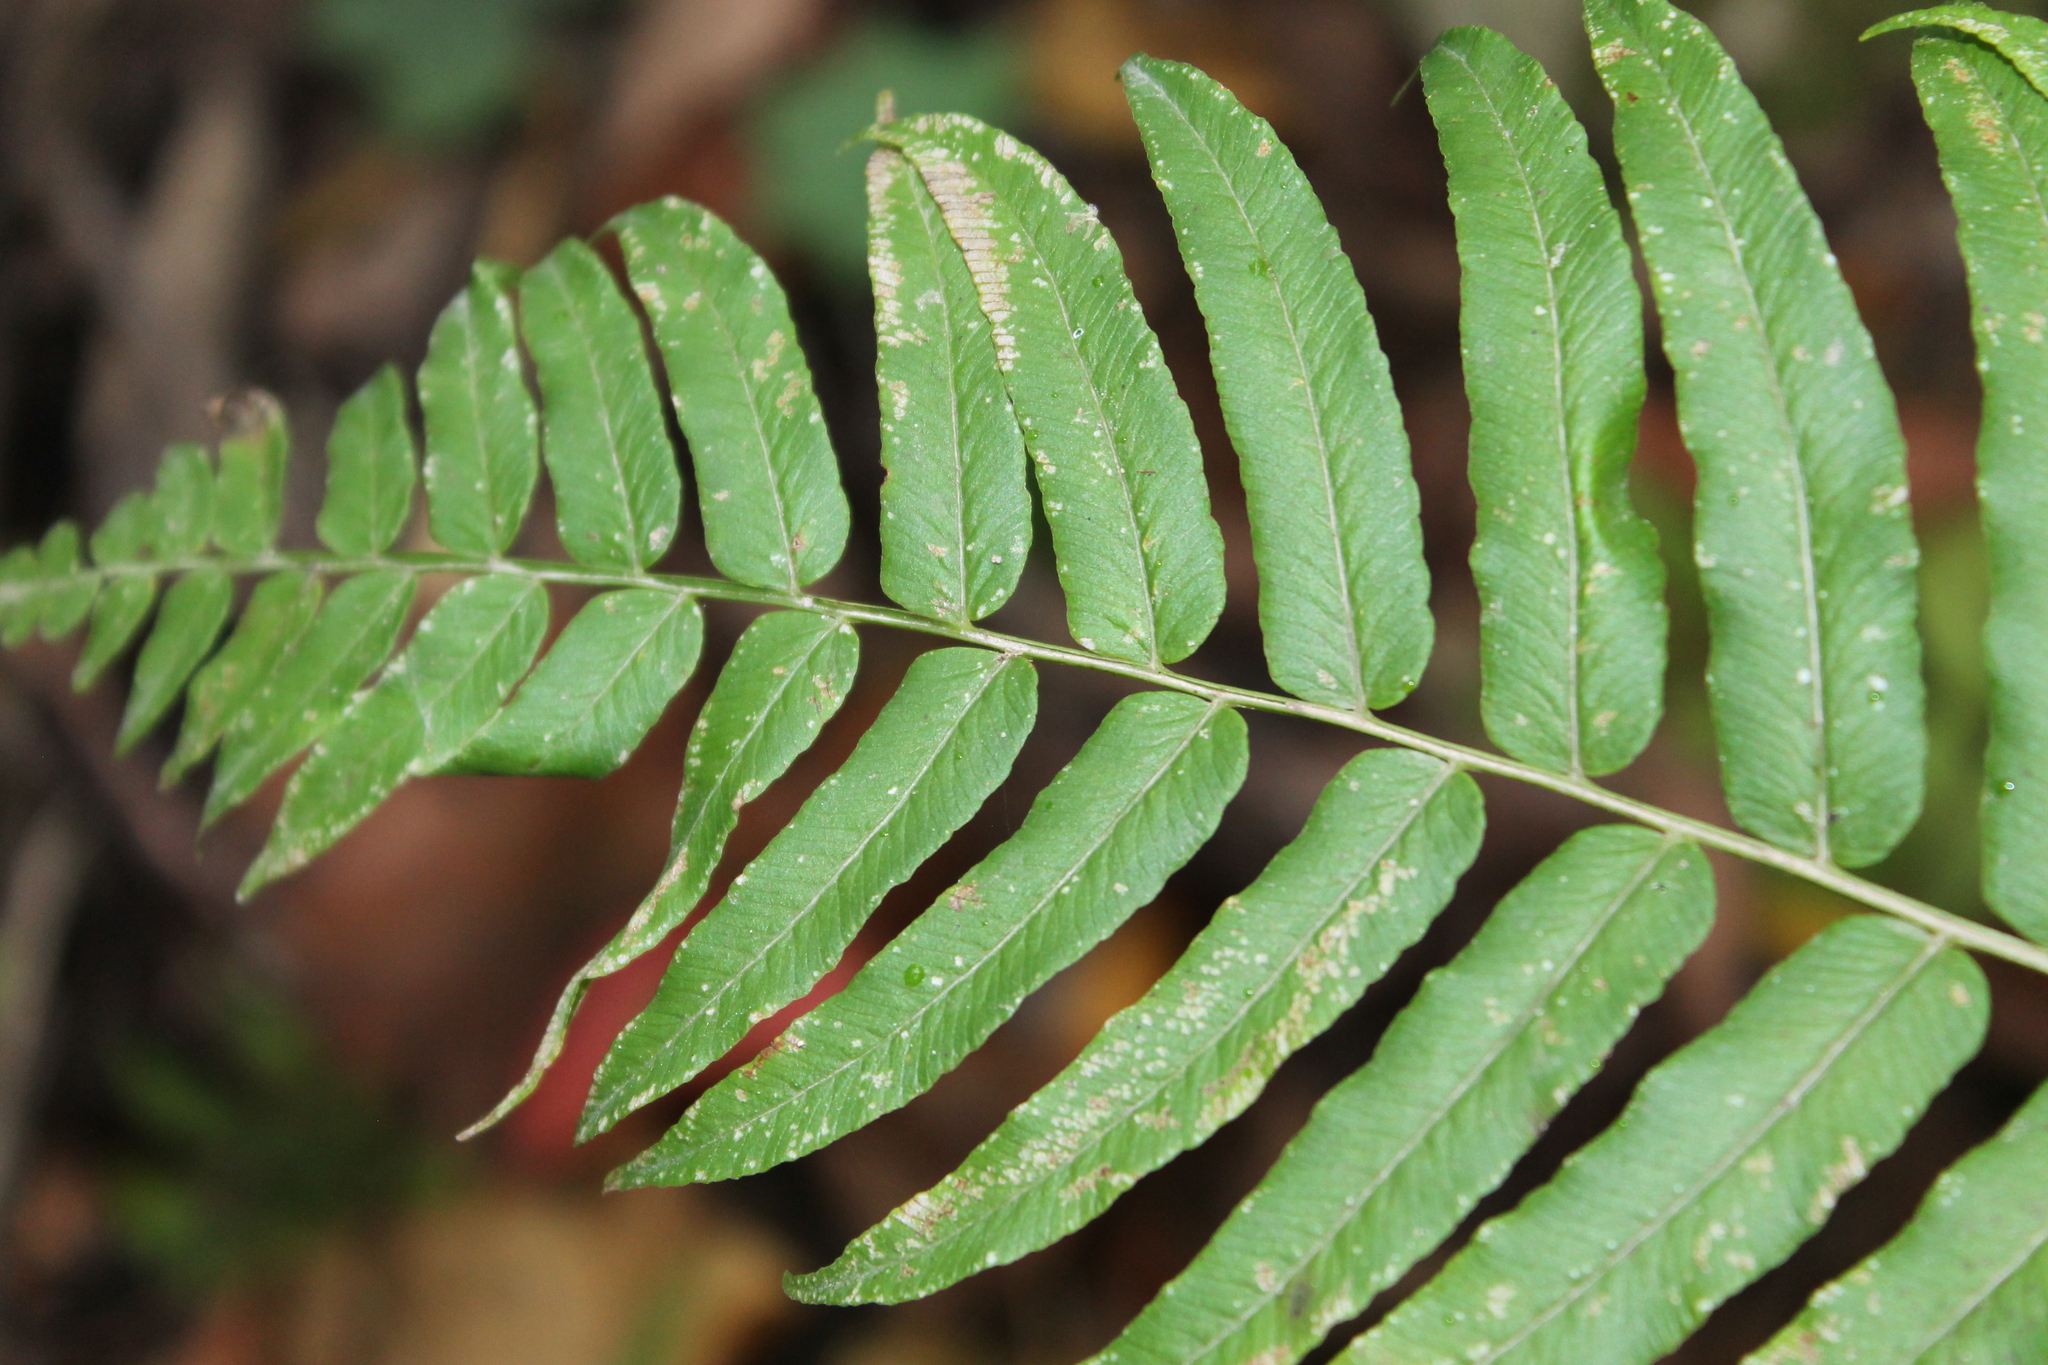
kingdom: Plantae
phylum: Tracheophyta
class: Polypodiopsida
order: Polypodiales
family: Diplaziopsidaceae
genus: Homalosorus
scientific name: Homalosorus pycnocarpos
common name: Glade fern
